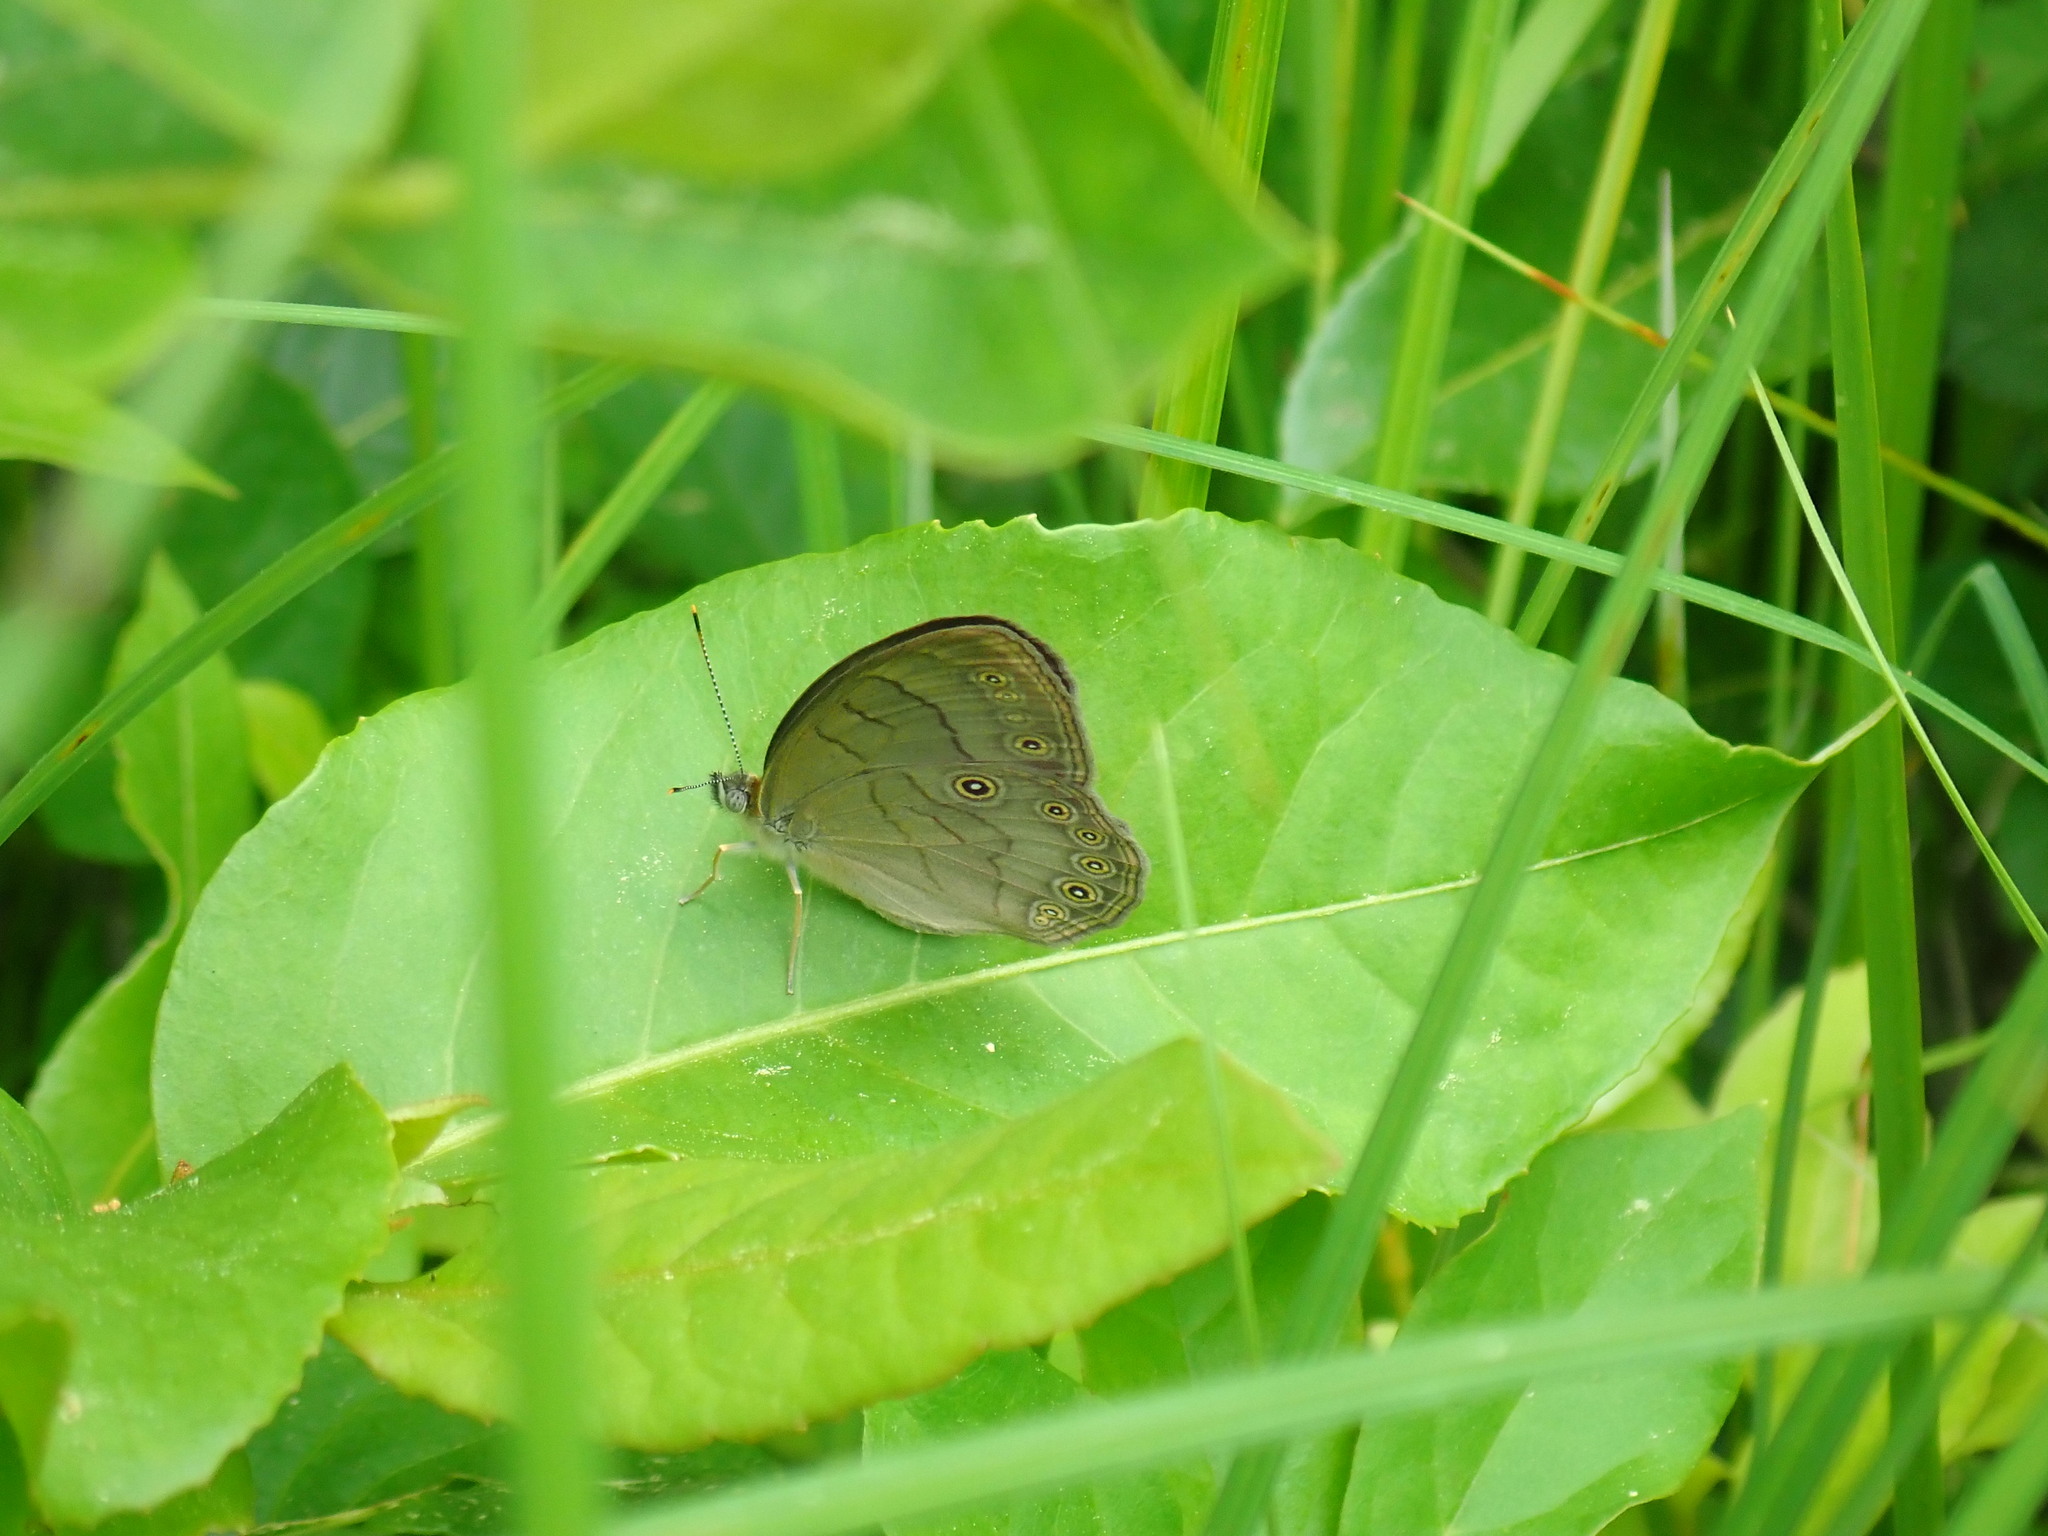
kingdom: Animalia
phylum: Arthropoda
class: Insecta
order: Lepidoptera
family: Nymphalidae
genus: Lethe
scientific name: Lethe eurydice
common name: Eyed brown
